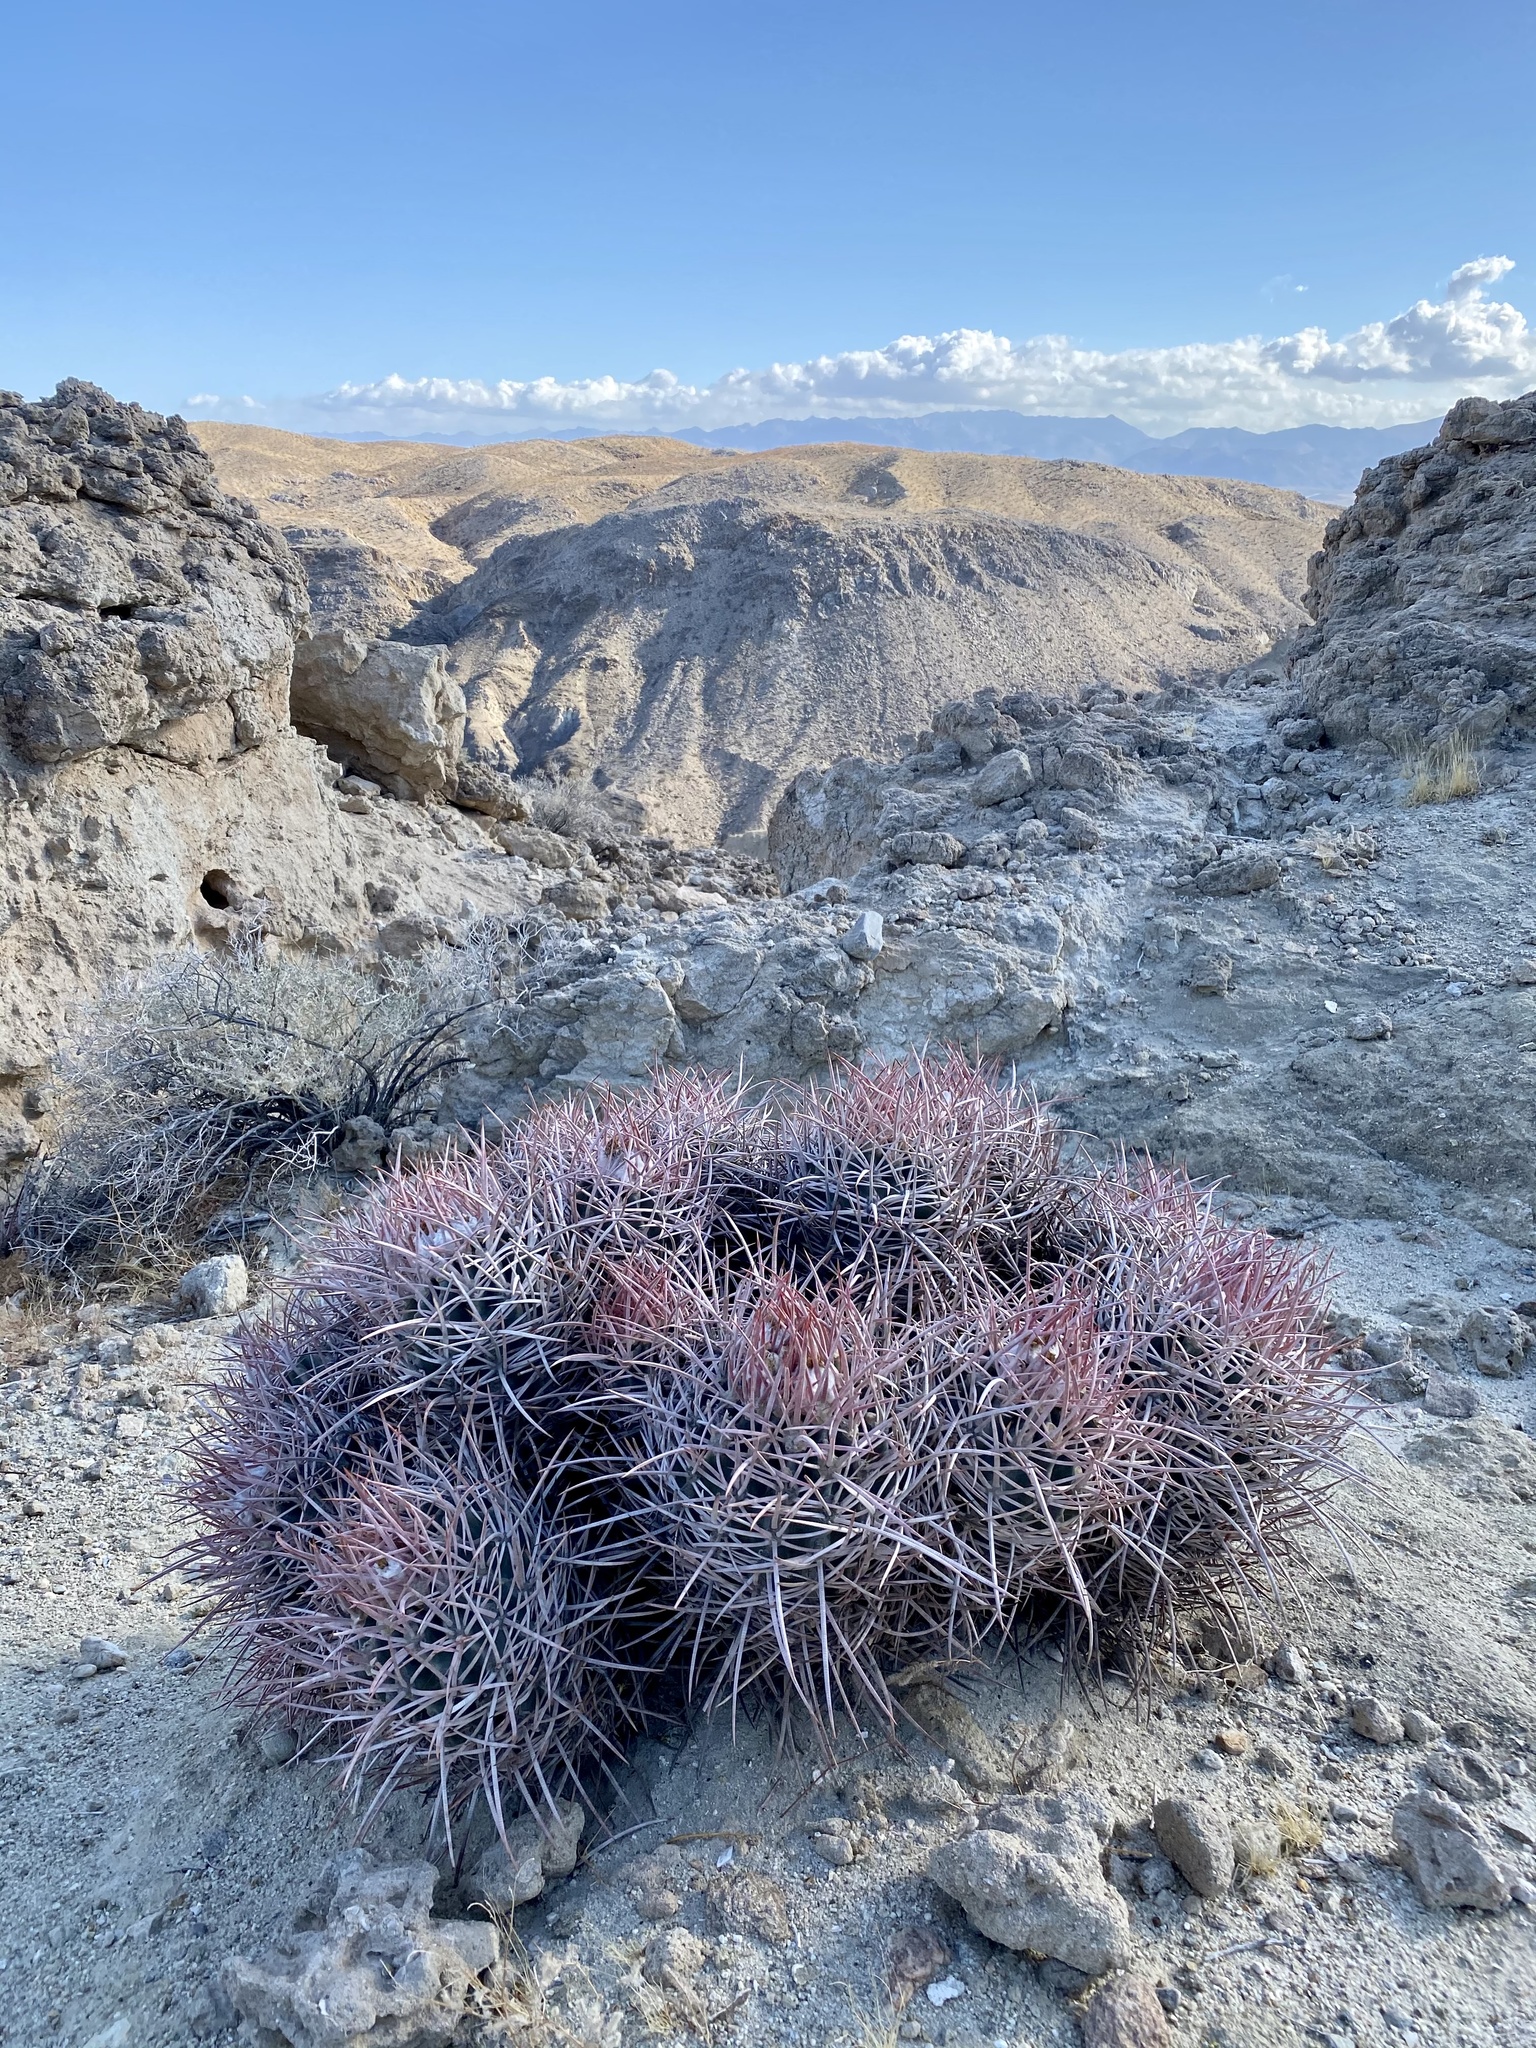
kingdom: Plantae
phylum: Tracheophyta
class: Magnoliopsida
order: Caryophyllales
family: Cactaceae
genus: Echinocactus
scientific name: Echinocactus polycephalus
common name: Cottontop cactus
